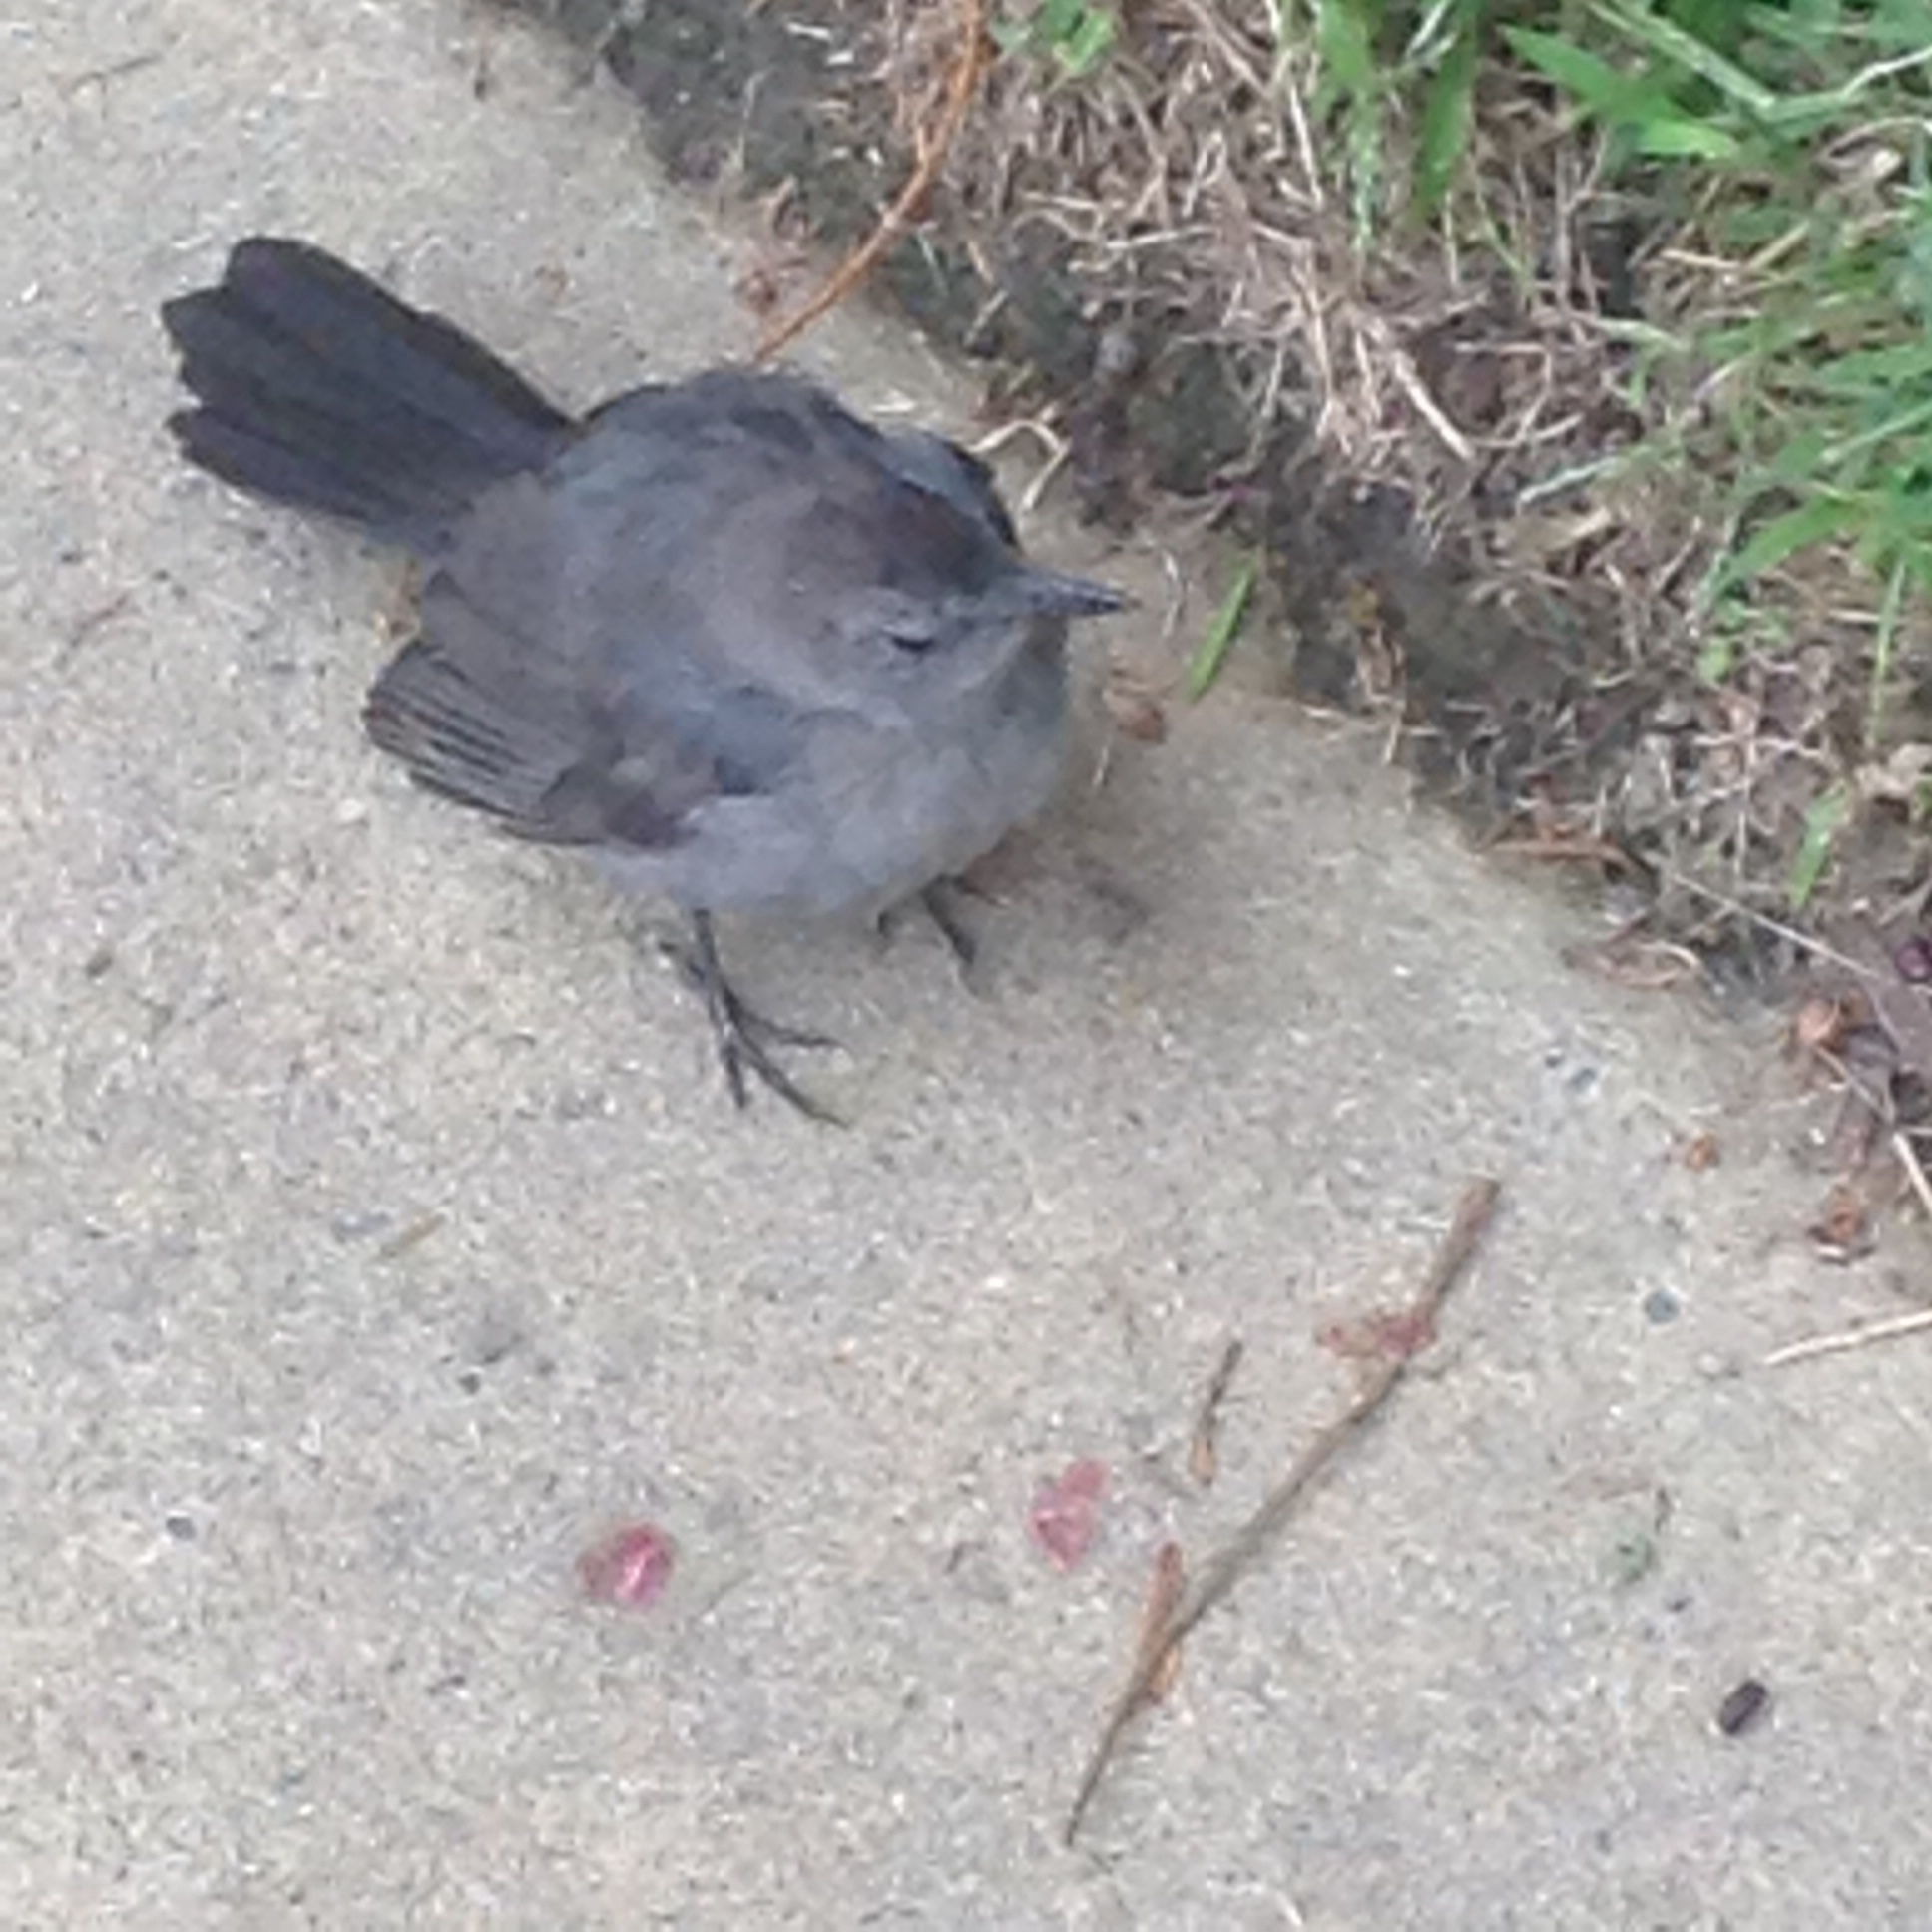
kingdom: Animalia
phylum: Chordata
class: Aves
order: Passeriformes
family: Mimidae
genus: Dumetella
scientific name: Dumetella carolinensis
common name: Gray catbird
